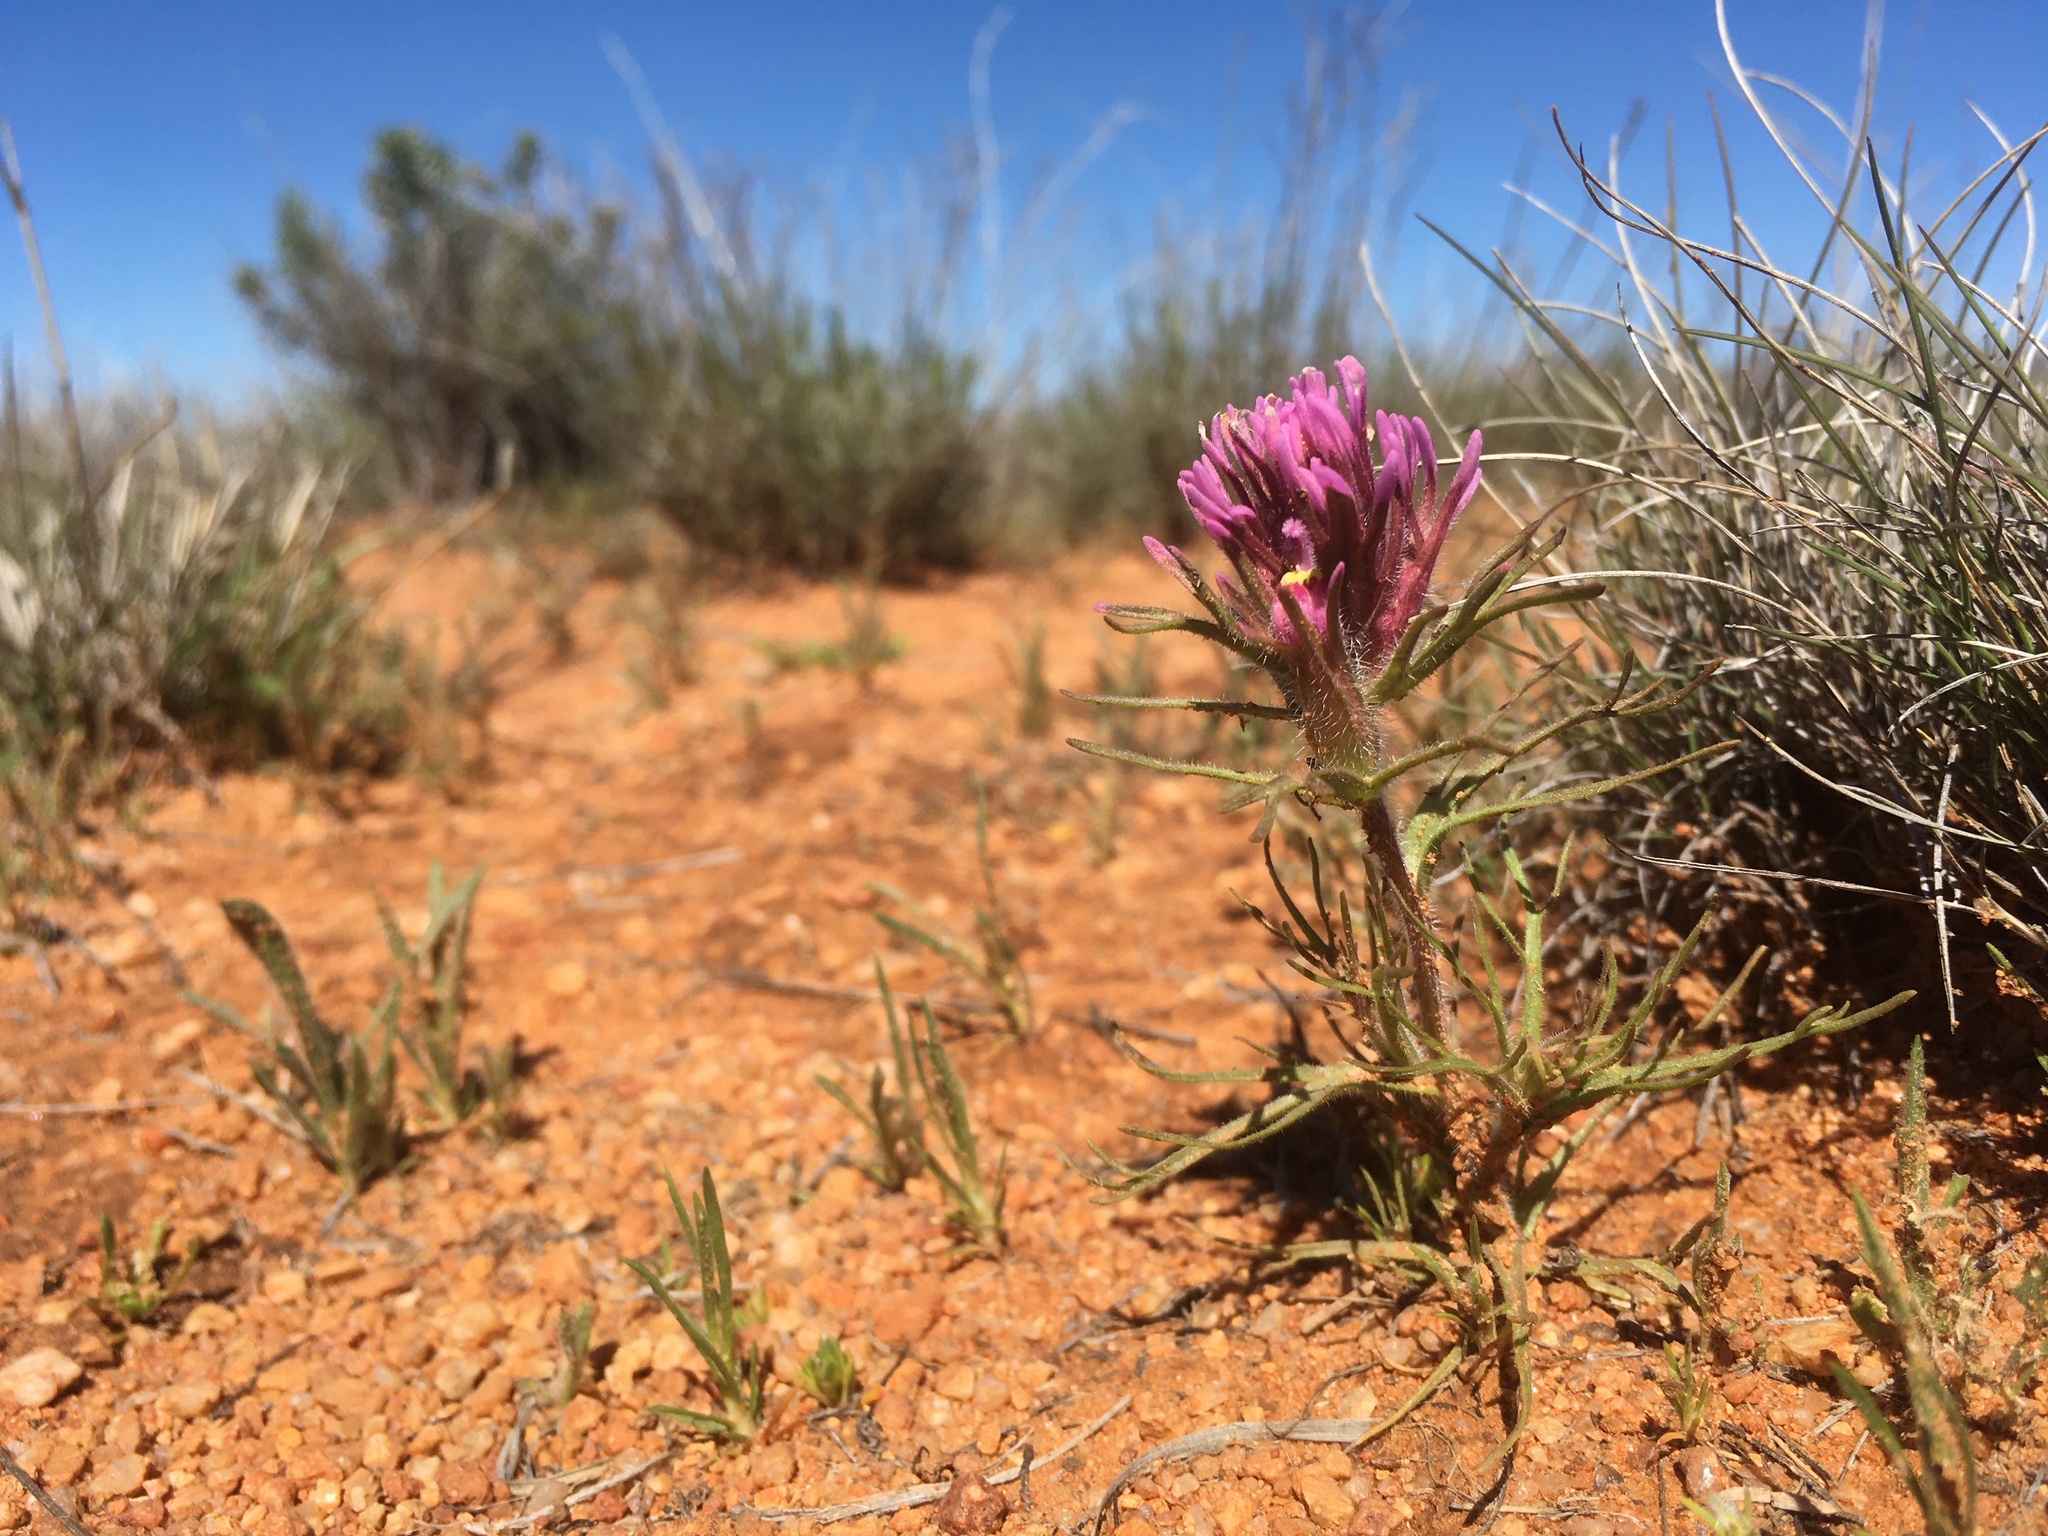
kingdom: Plantae
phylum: Tracheophyta
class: Magnoliopsida
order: Lamiales
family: Orobanchaceae
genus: Castilleja
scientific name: Castilleja exserta
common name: Purple owl-clover
